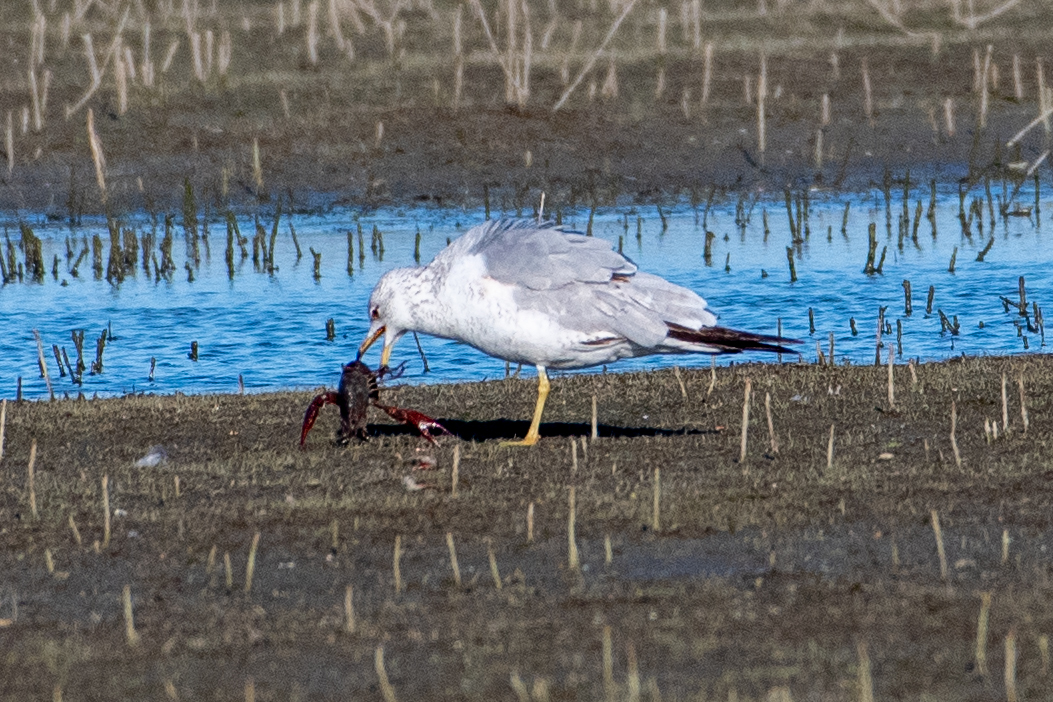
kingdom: Animalia
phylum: Chordata
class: Aves
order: Charadriiformes
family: Laridae
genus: Larus
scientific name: Larus delawarensis
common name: Ring-billed gull
